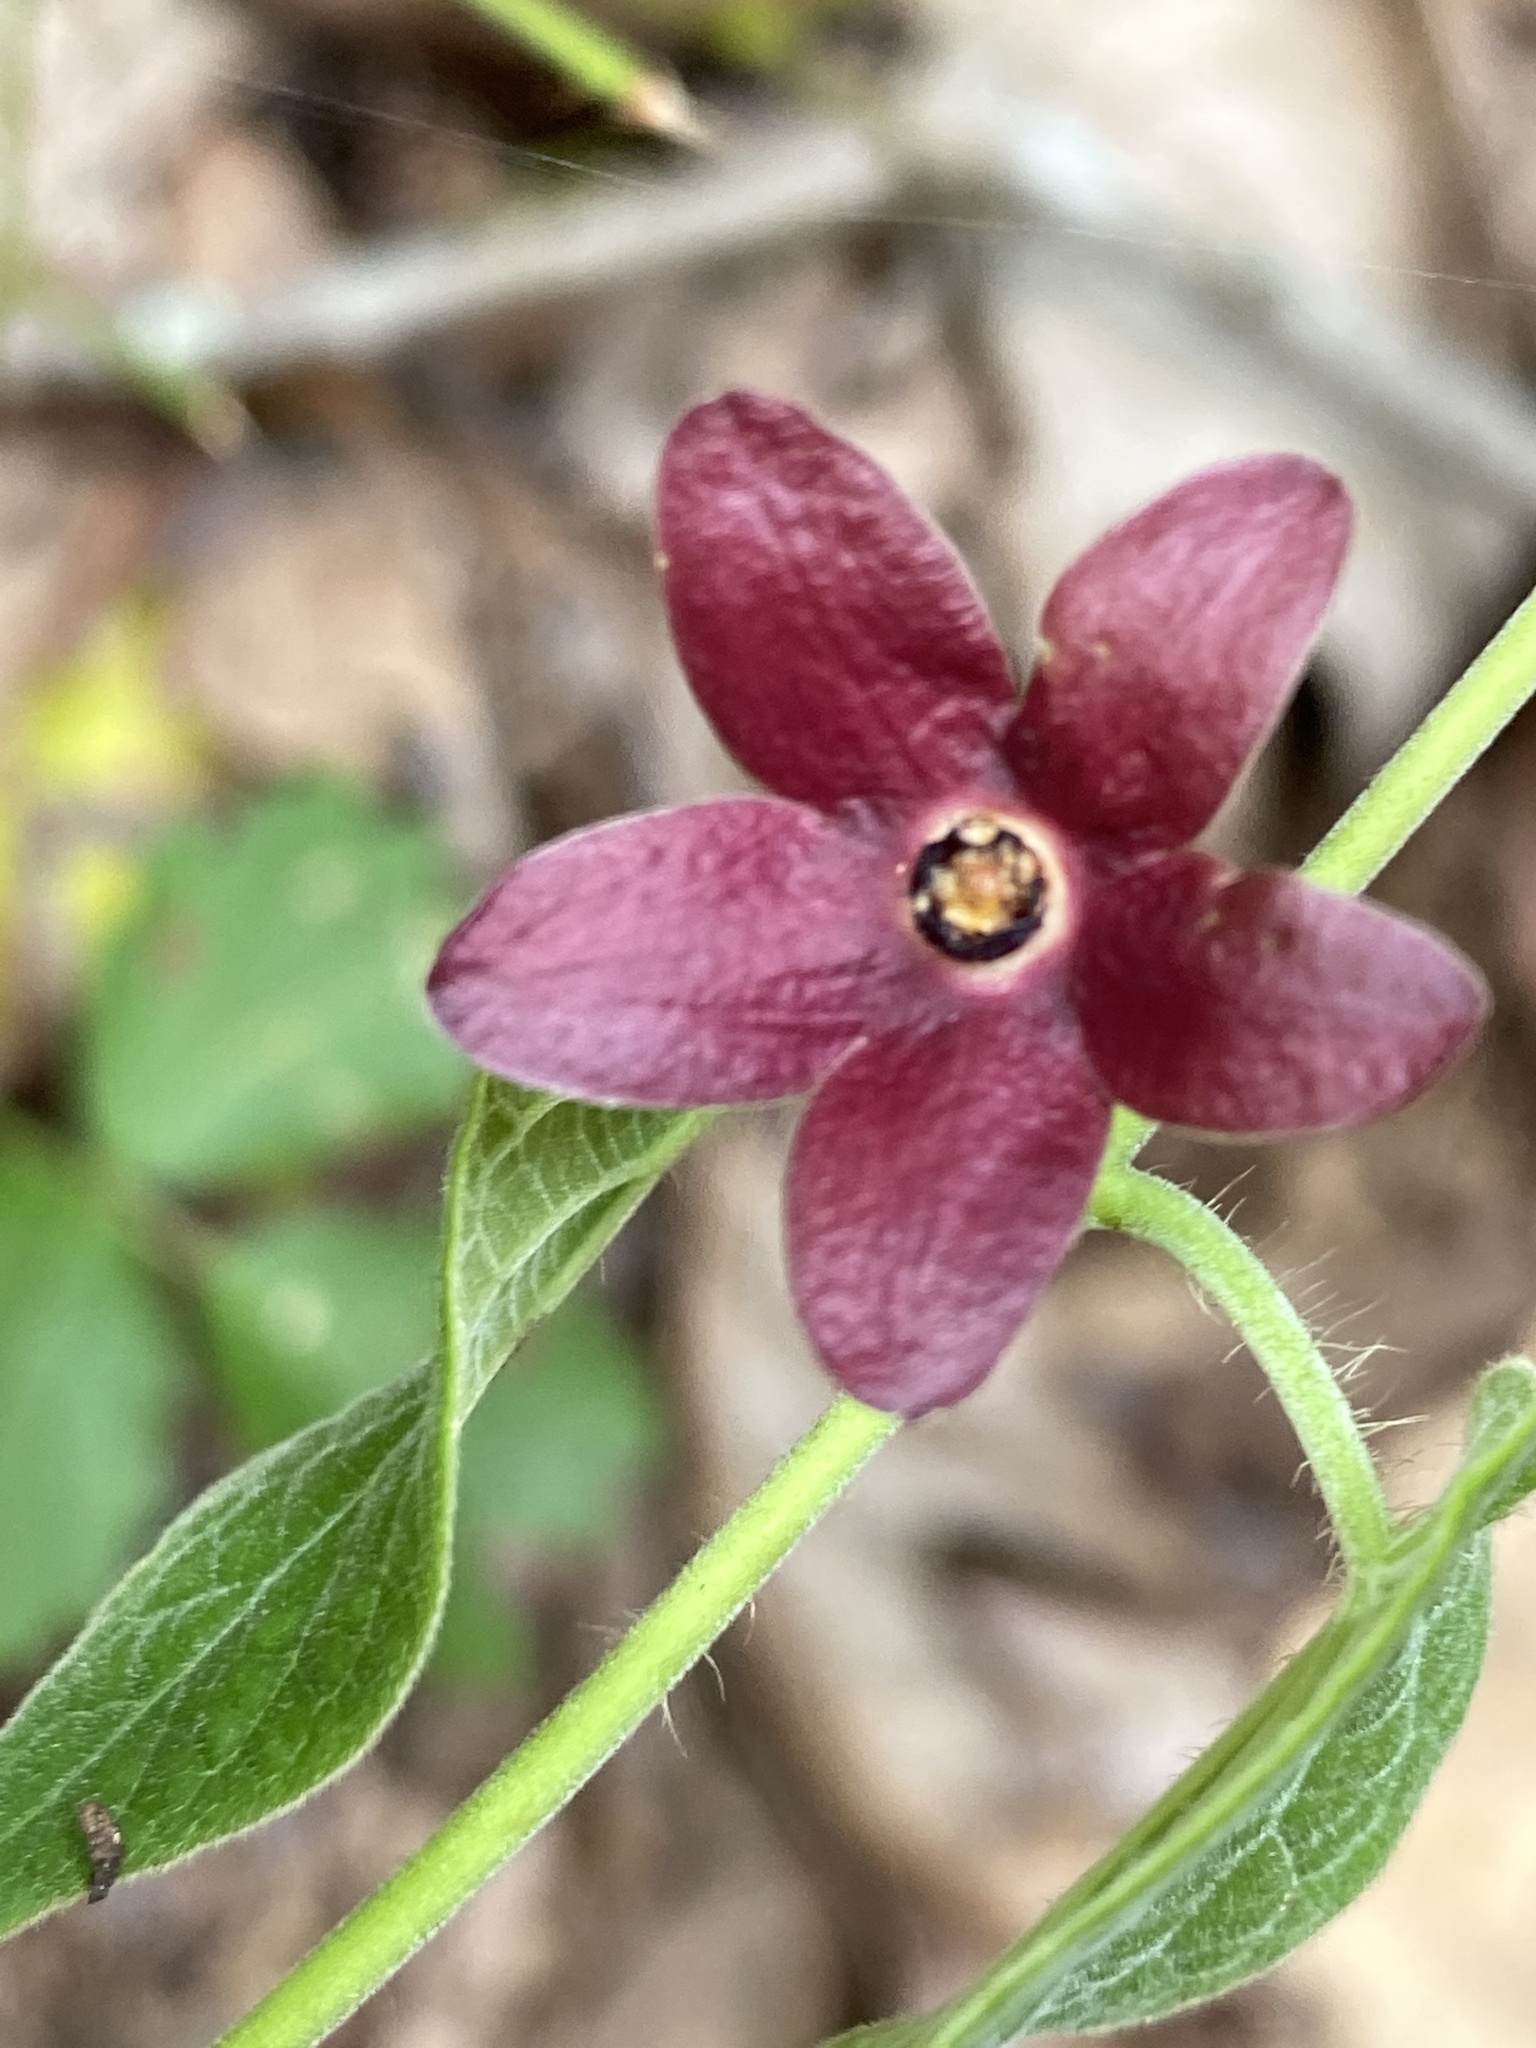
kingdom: Plantae
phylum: Tracheophyta
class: Magnoliopsida
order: Gentianales
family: Apocynaceae
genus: Matelea
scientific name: Matelea carolinensis
